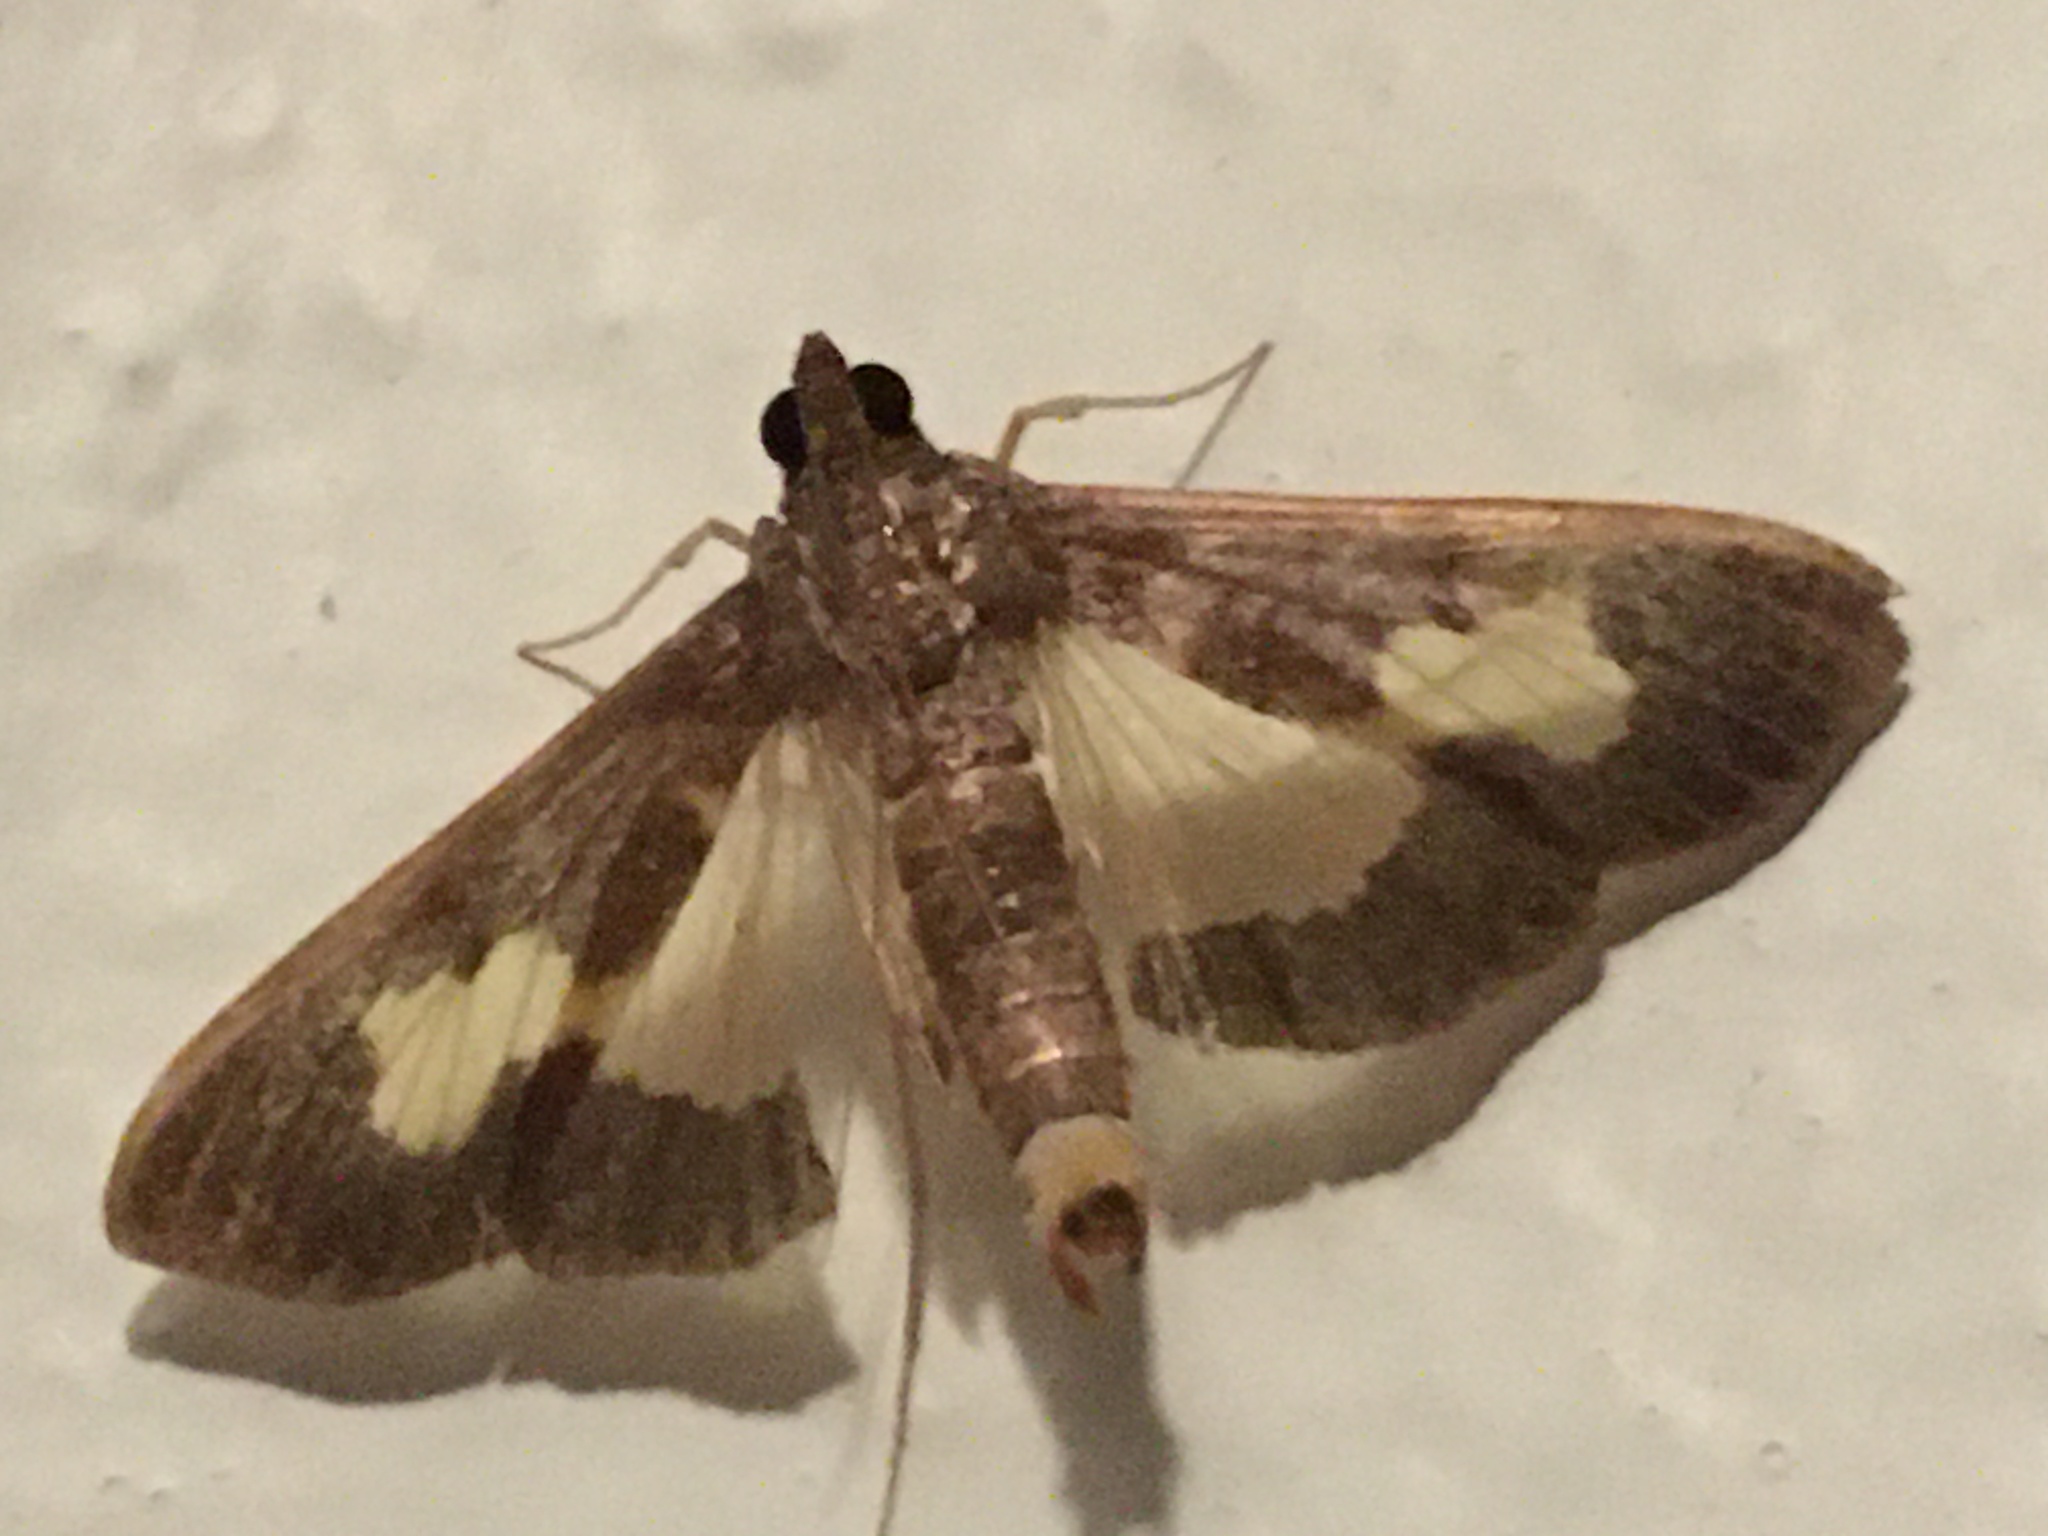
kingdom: Animalia
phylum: Arthropoda
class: Insecta
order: Lepidoptera
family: Crambidae
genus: Cryptographis
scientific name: Cryptographis nitidalis
